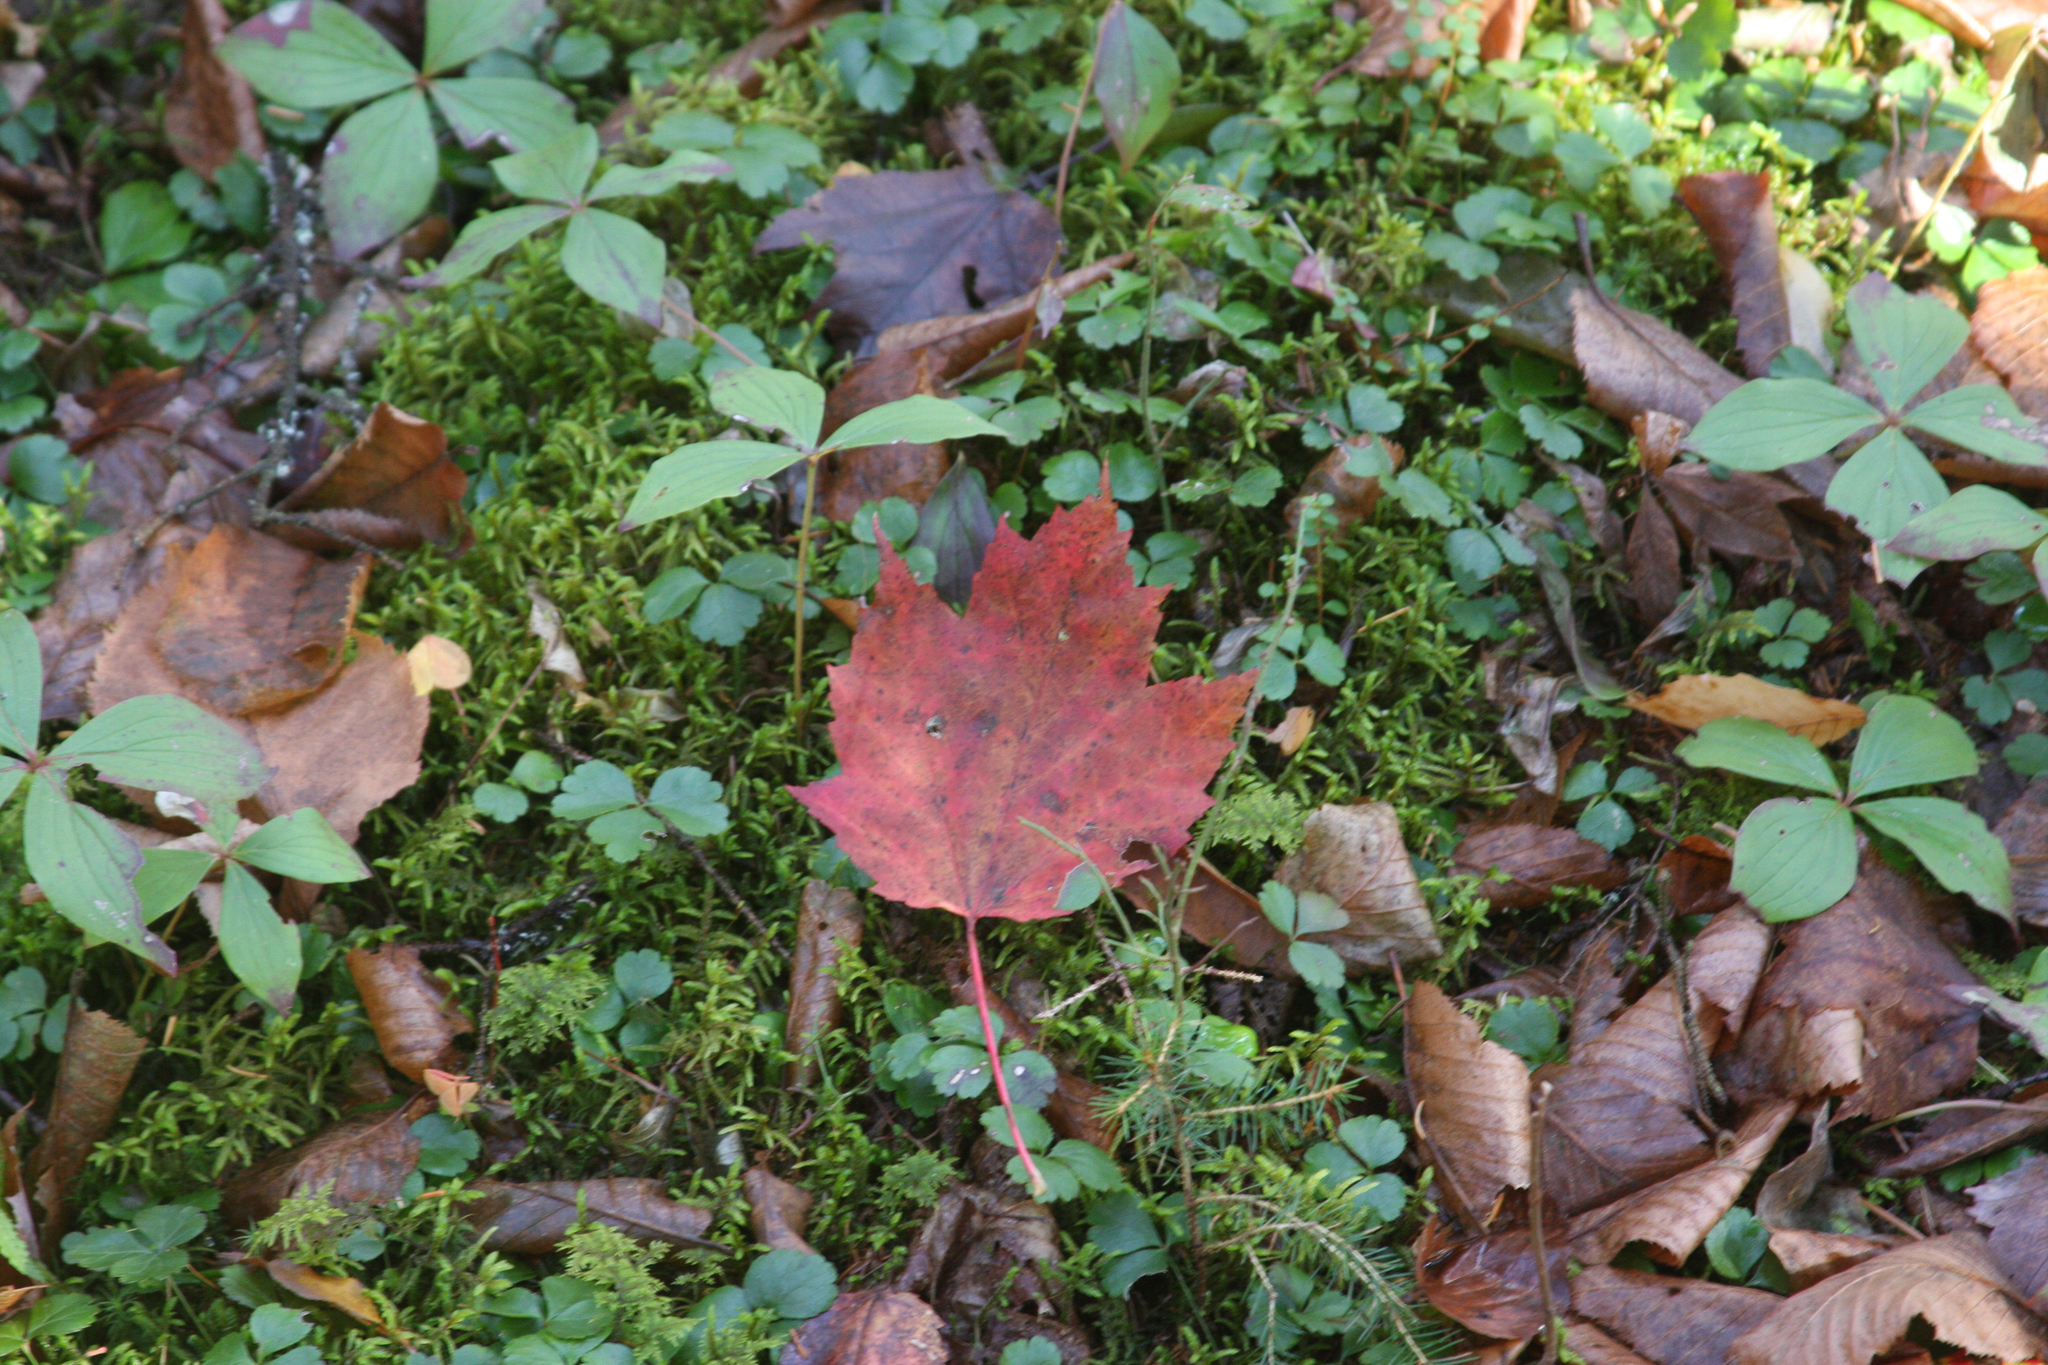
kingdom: Plantae
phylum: Tracheophyta
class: Magnoliopsida
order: Sapindales
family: Sapindaceae
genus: Acer
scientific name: Acer rubrum
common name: Red maple
